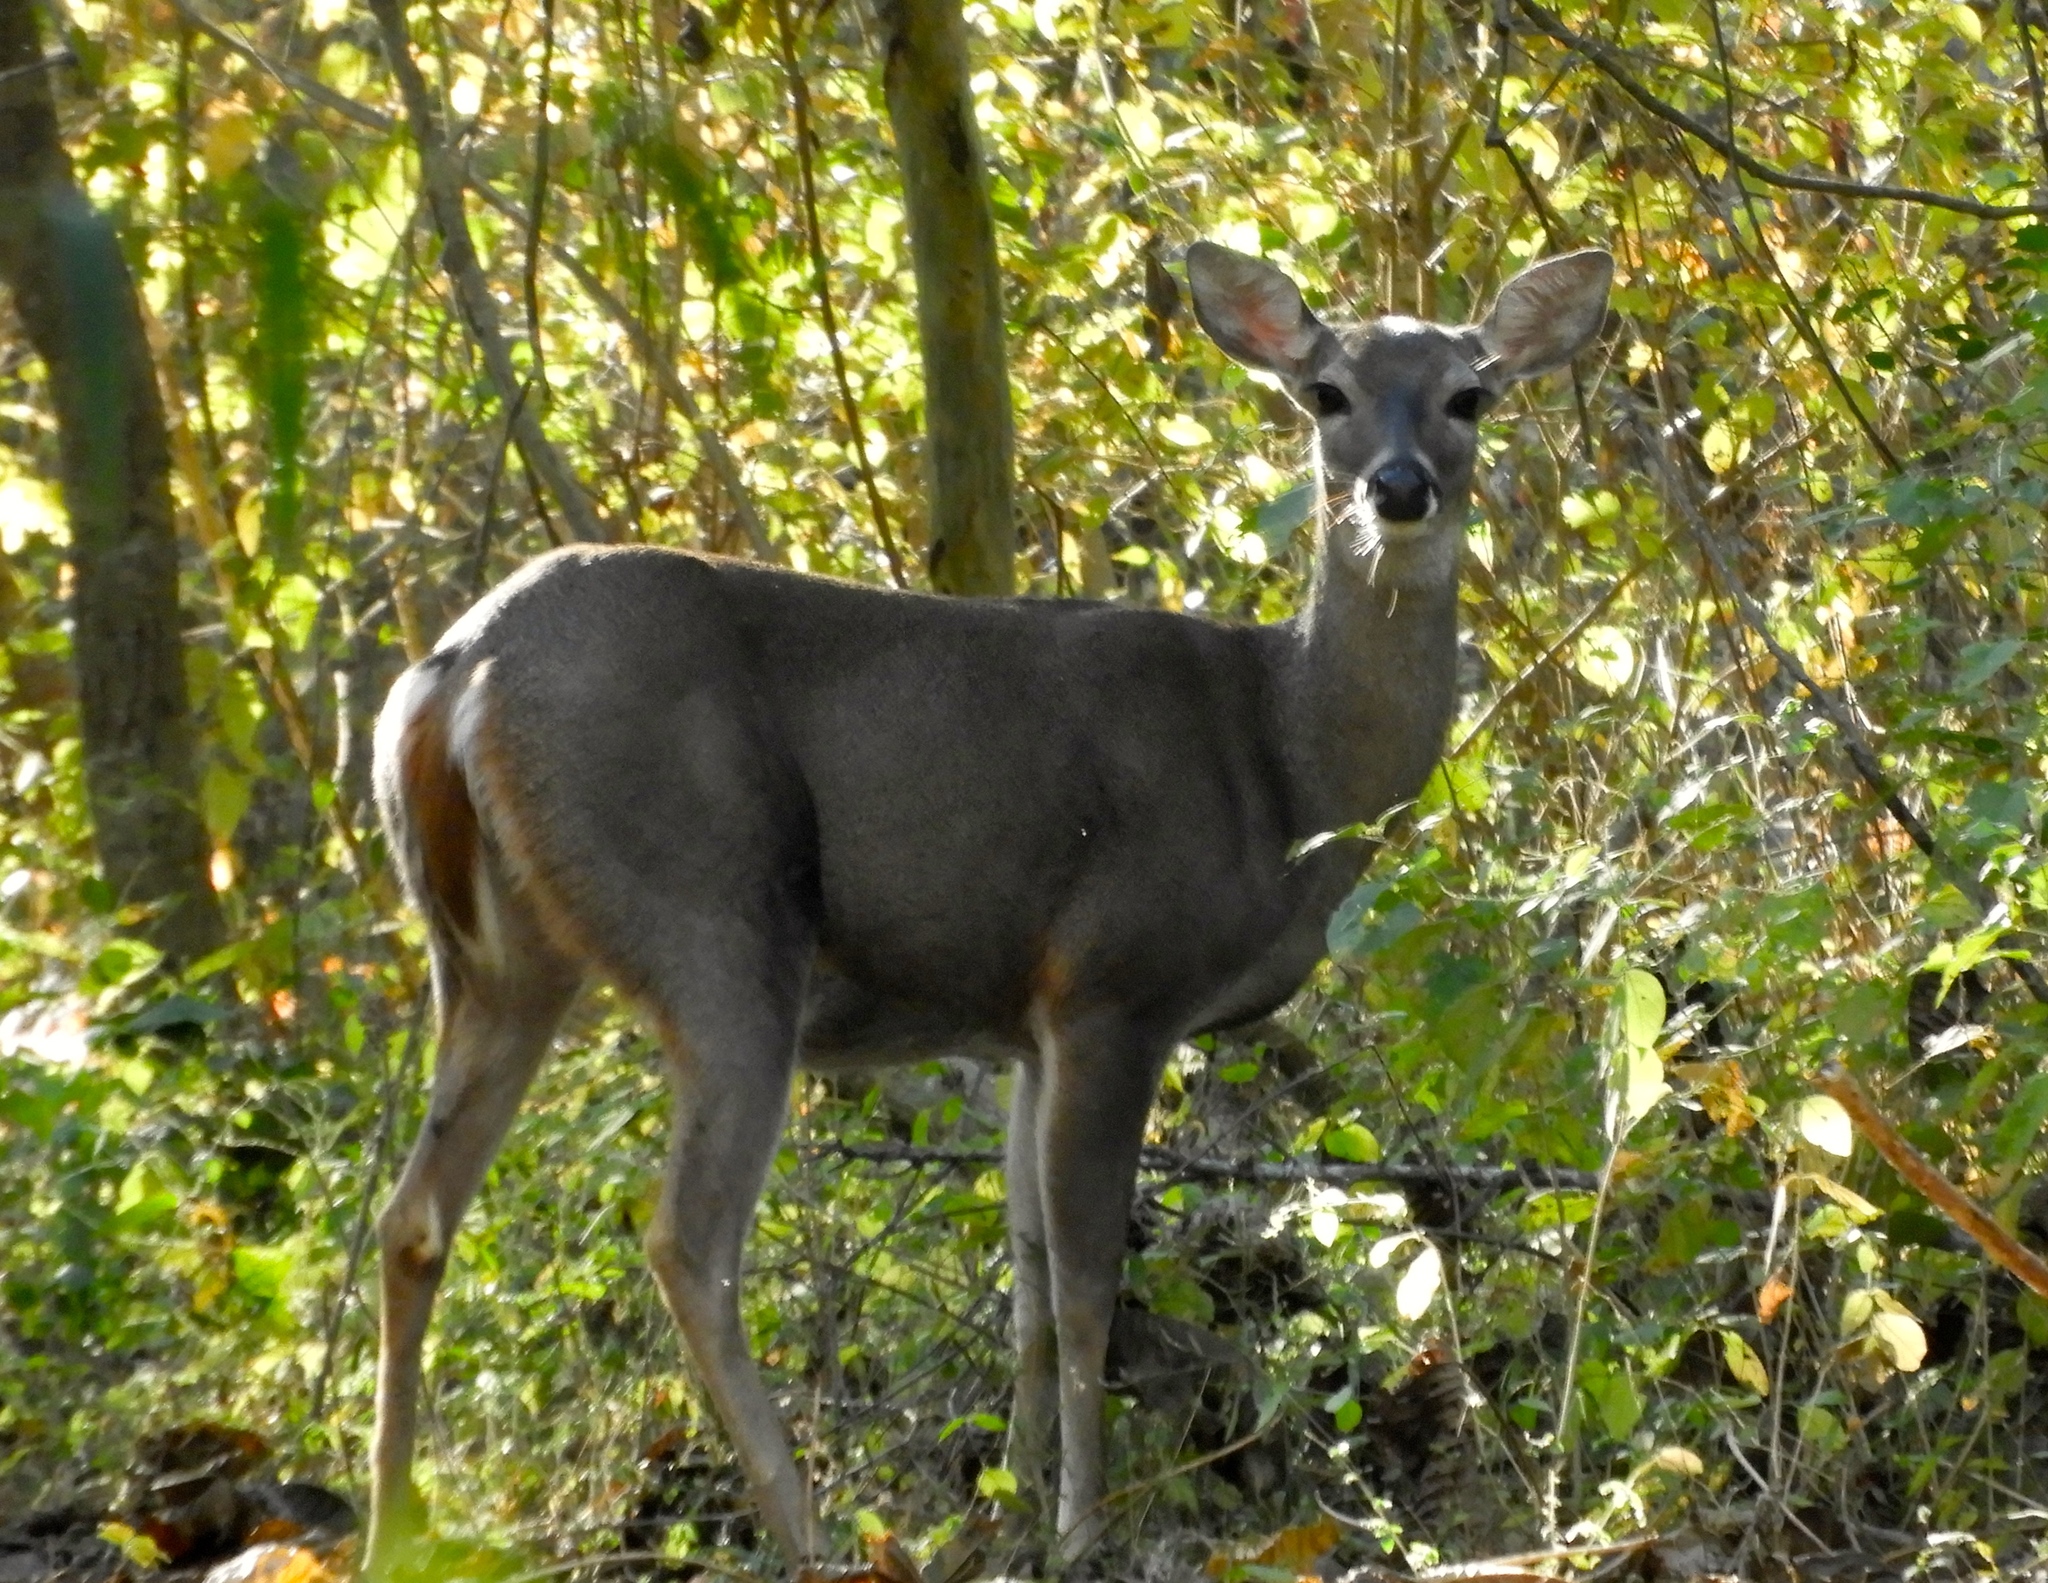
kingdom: Animalia
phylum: Chordata
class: Mammalia
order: Artiodactyla
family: Cervidae
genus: Odocoileus
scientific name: Odocoileus virginianus
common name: White-tailed deer
